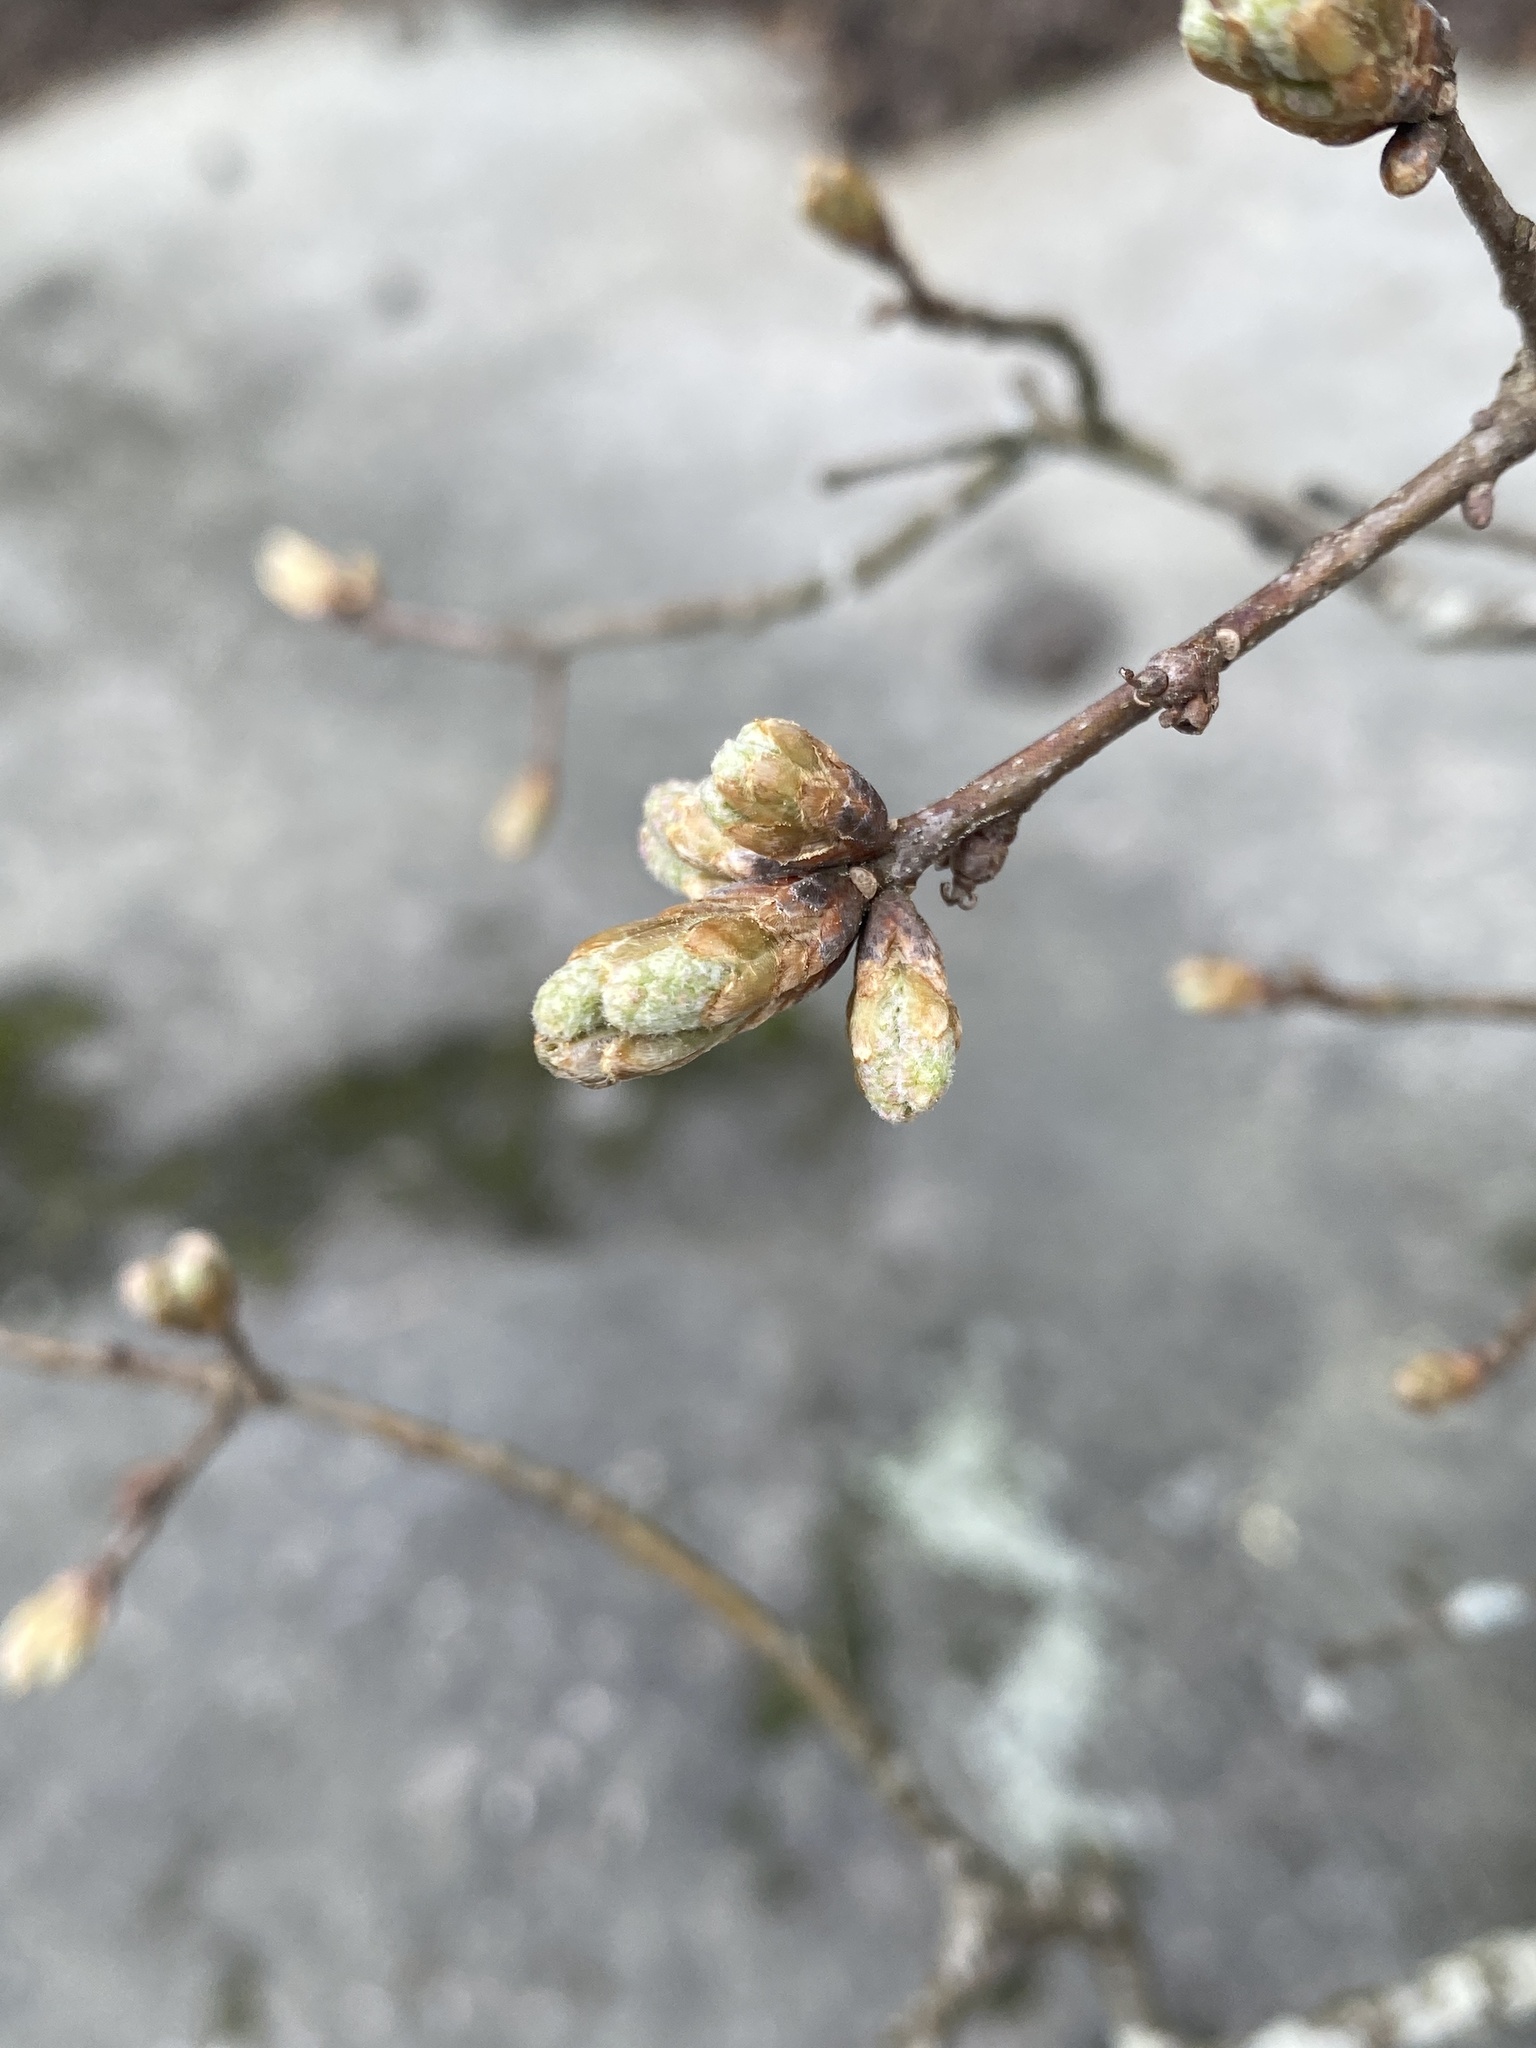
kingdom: Plantae
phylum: Tracheophyta
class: Magnoliopsida
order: Fagales
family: Fagaceae
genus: Quercus
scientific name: Quercus nigra
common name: Water oak
